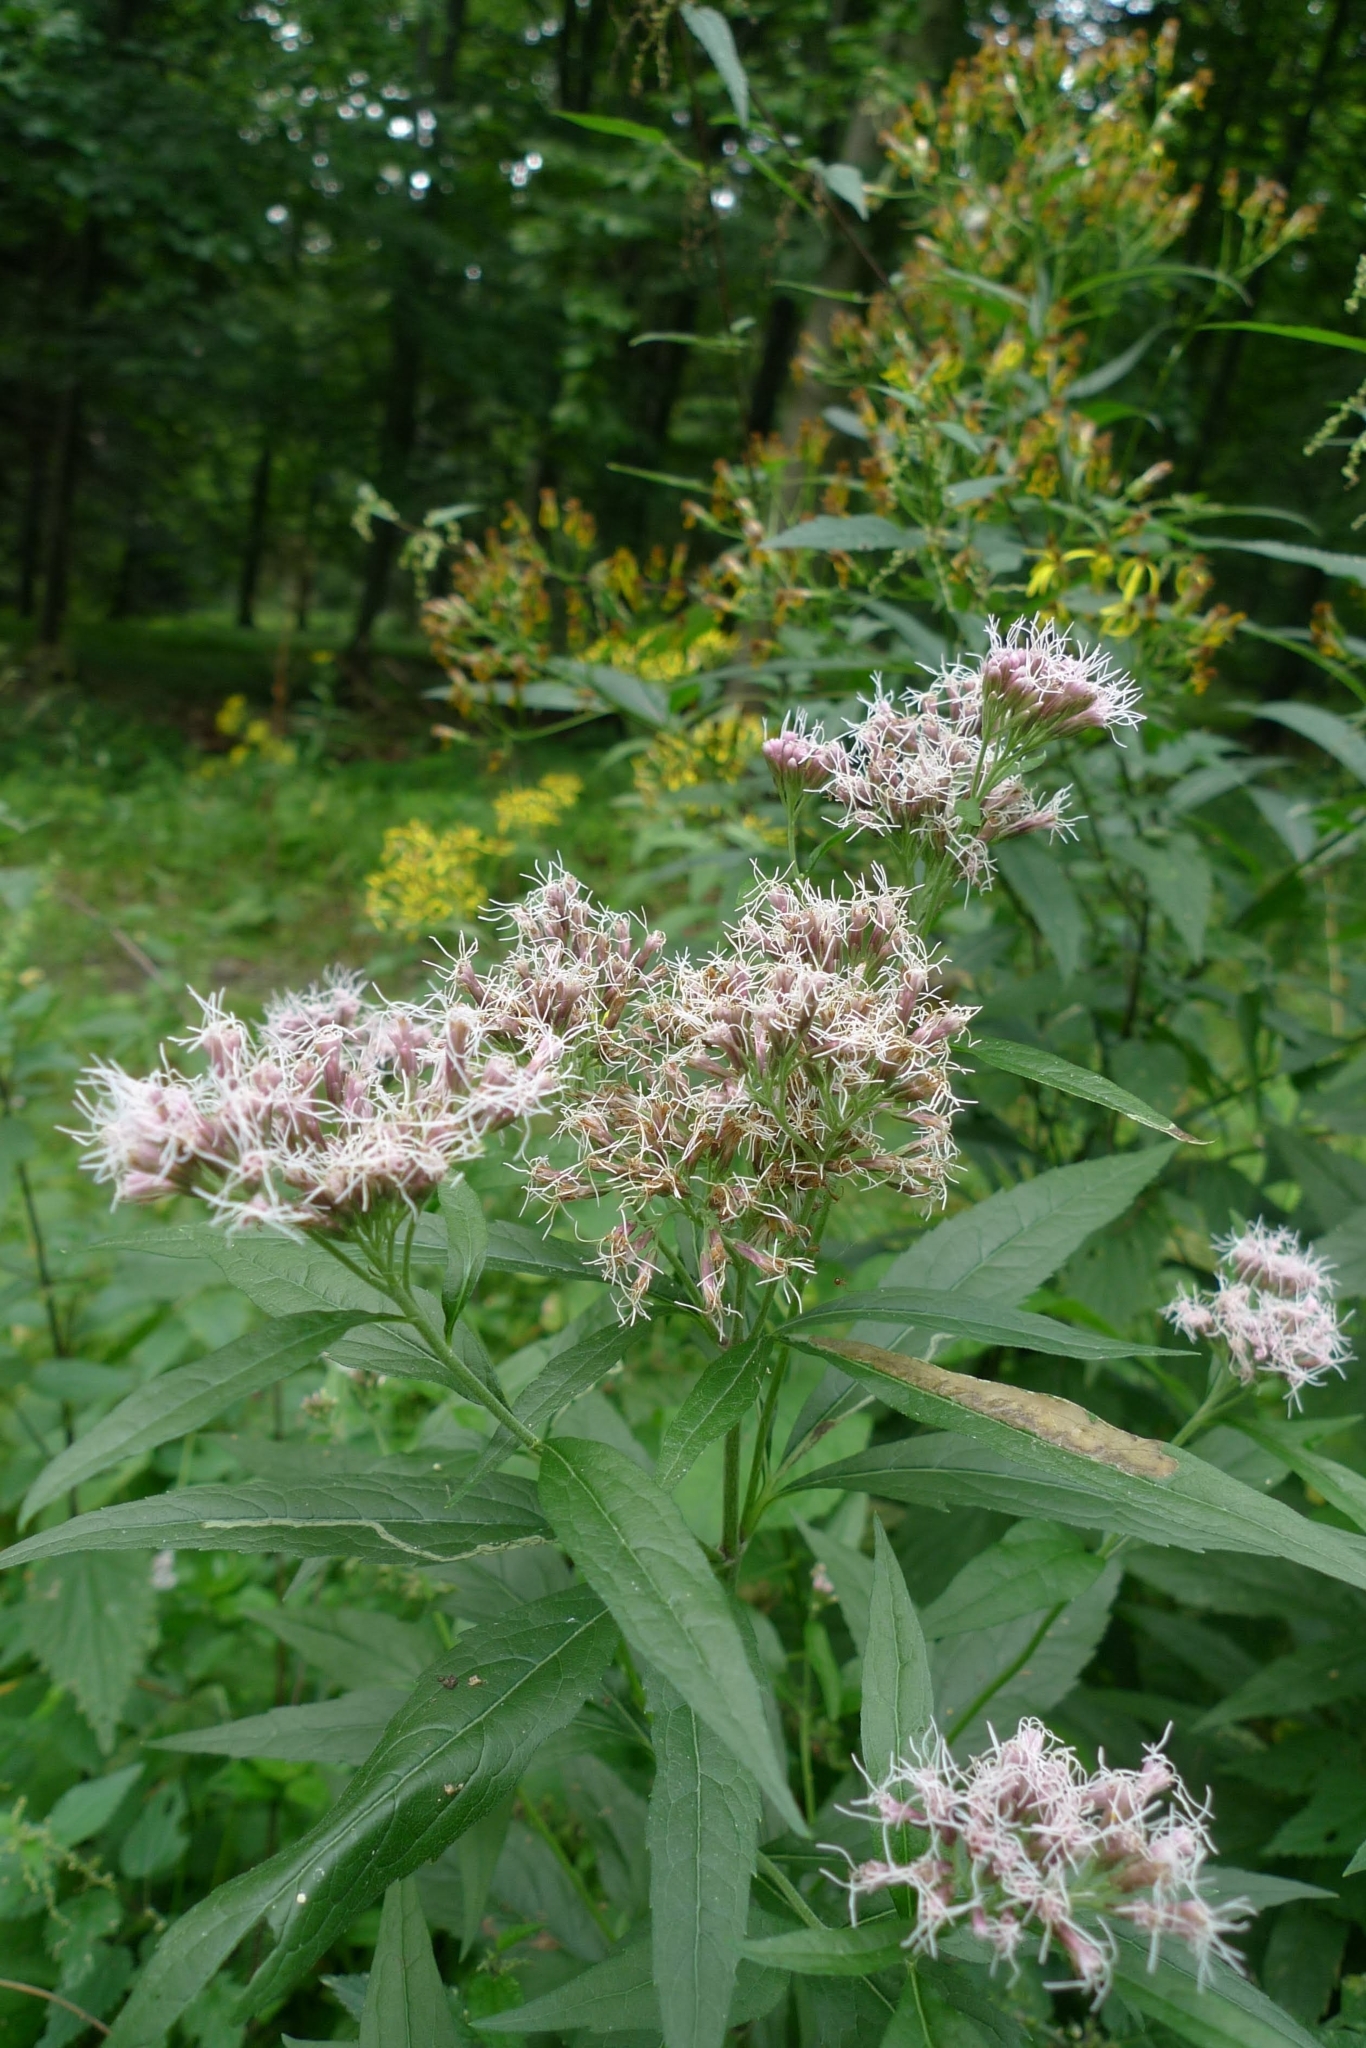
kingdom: Plantae
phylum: Tracheophyta
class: Magnoliopsida
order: Asterales
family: Asteraceae
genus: Eupatorium
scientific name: Eupatorium cannabinum
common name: Hemp-agrimony
